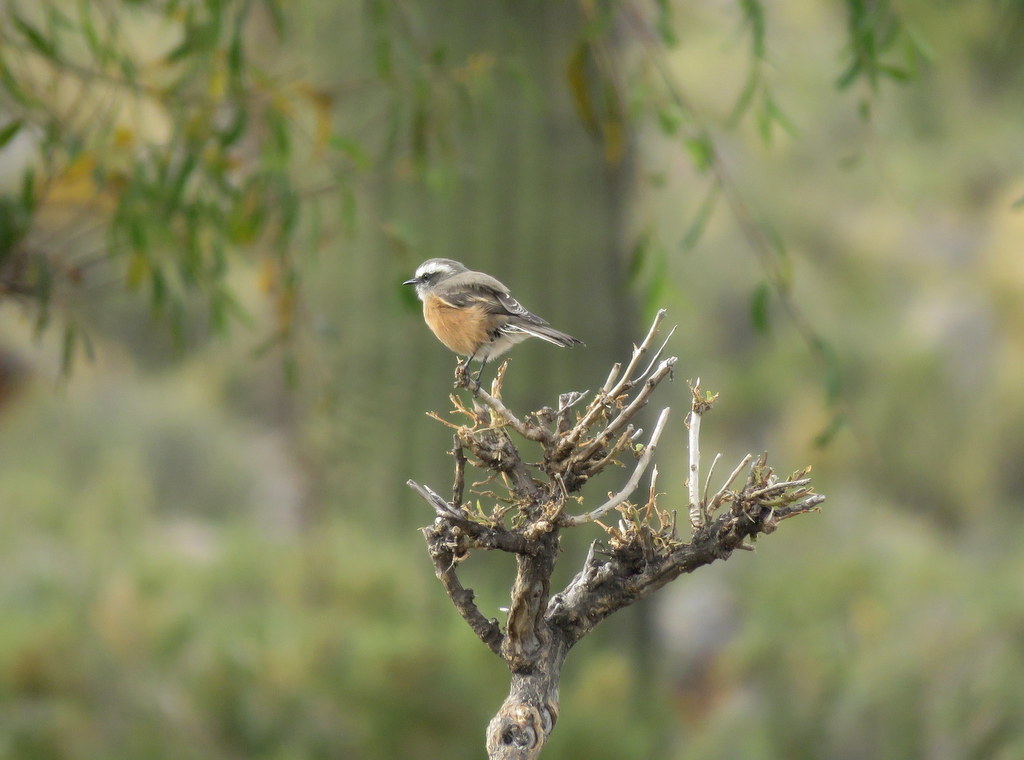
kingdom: Animalia
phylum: Chordata
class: Aves
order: Passeriformes
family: Tyrannidae
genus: Ochthoeca
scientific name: Ochthoeca oenanthoides
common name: D'orbigny's chat-tyrant
